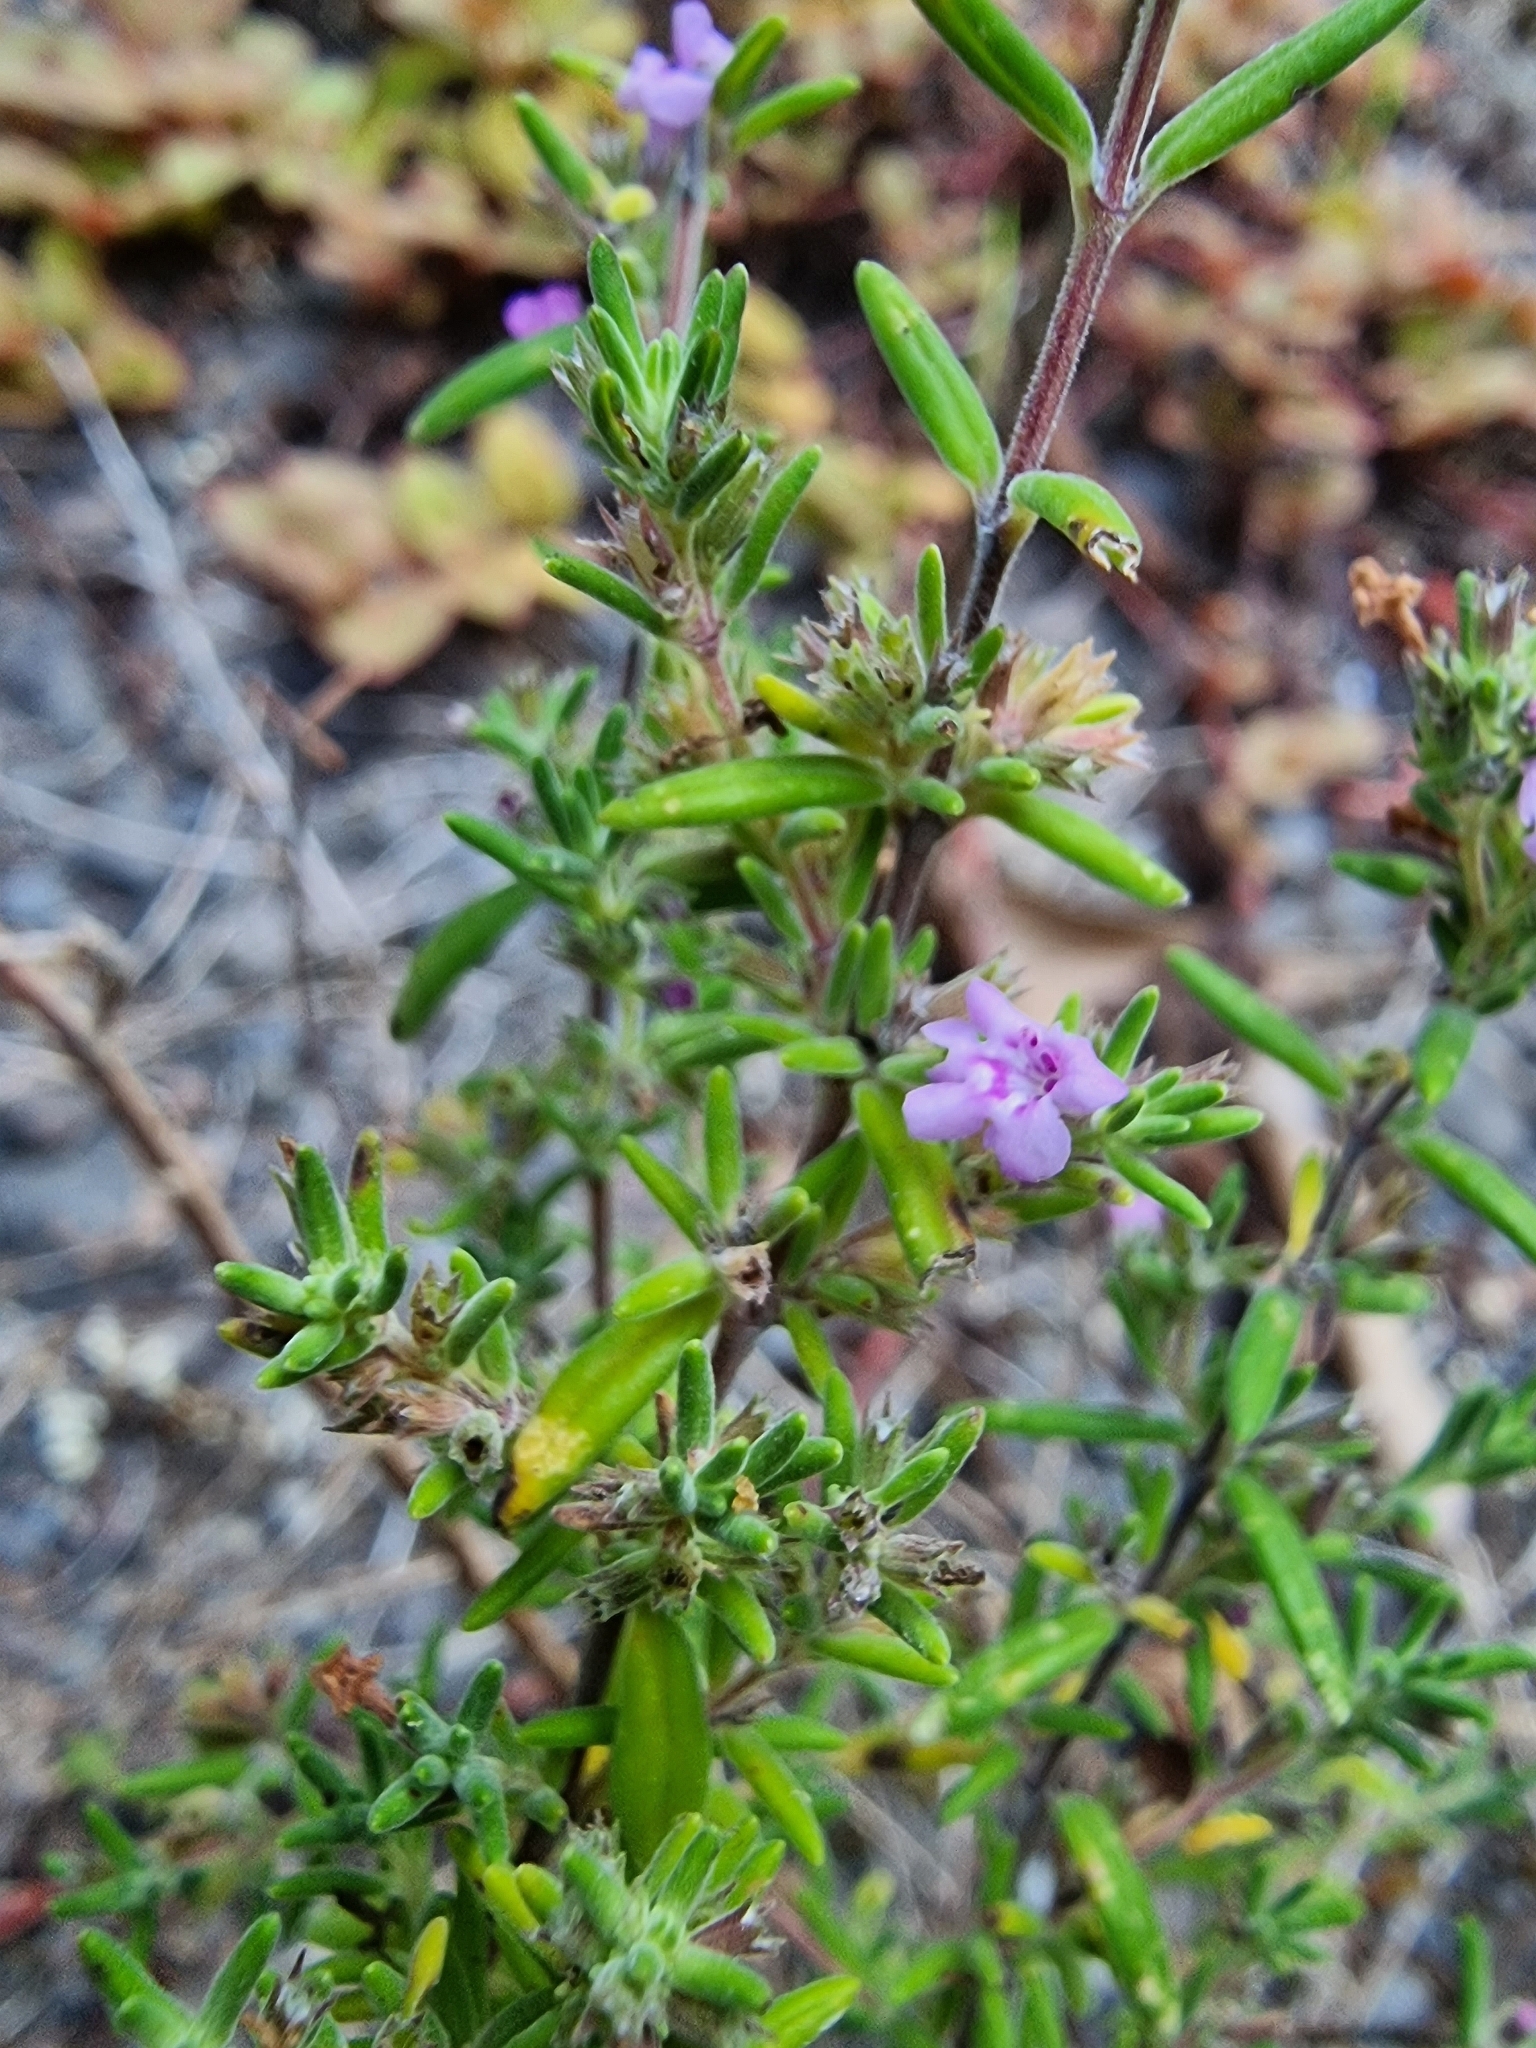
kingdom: Plantae
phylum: Tracheophyta
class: Magnoliopsida
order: Lamiales
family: Lamiaceae
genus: Micromeria
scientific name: Micromeria maderensis
